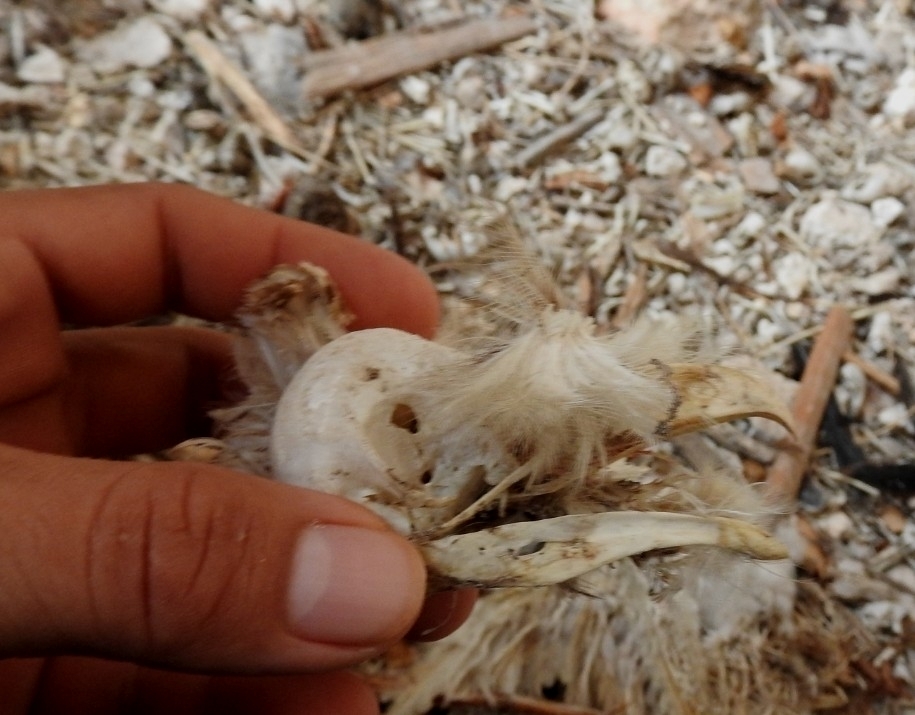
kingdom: Animalia
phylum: Chordata
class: Aves
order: Strigiformes
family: Tytonidae
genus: Tyto
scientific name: Tyto alba
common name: Barn owl
